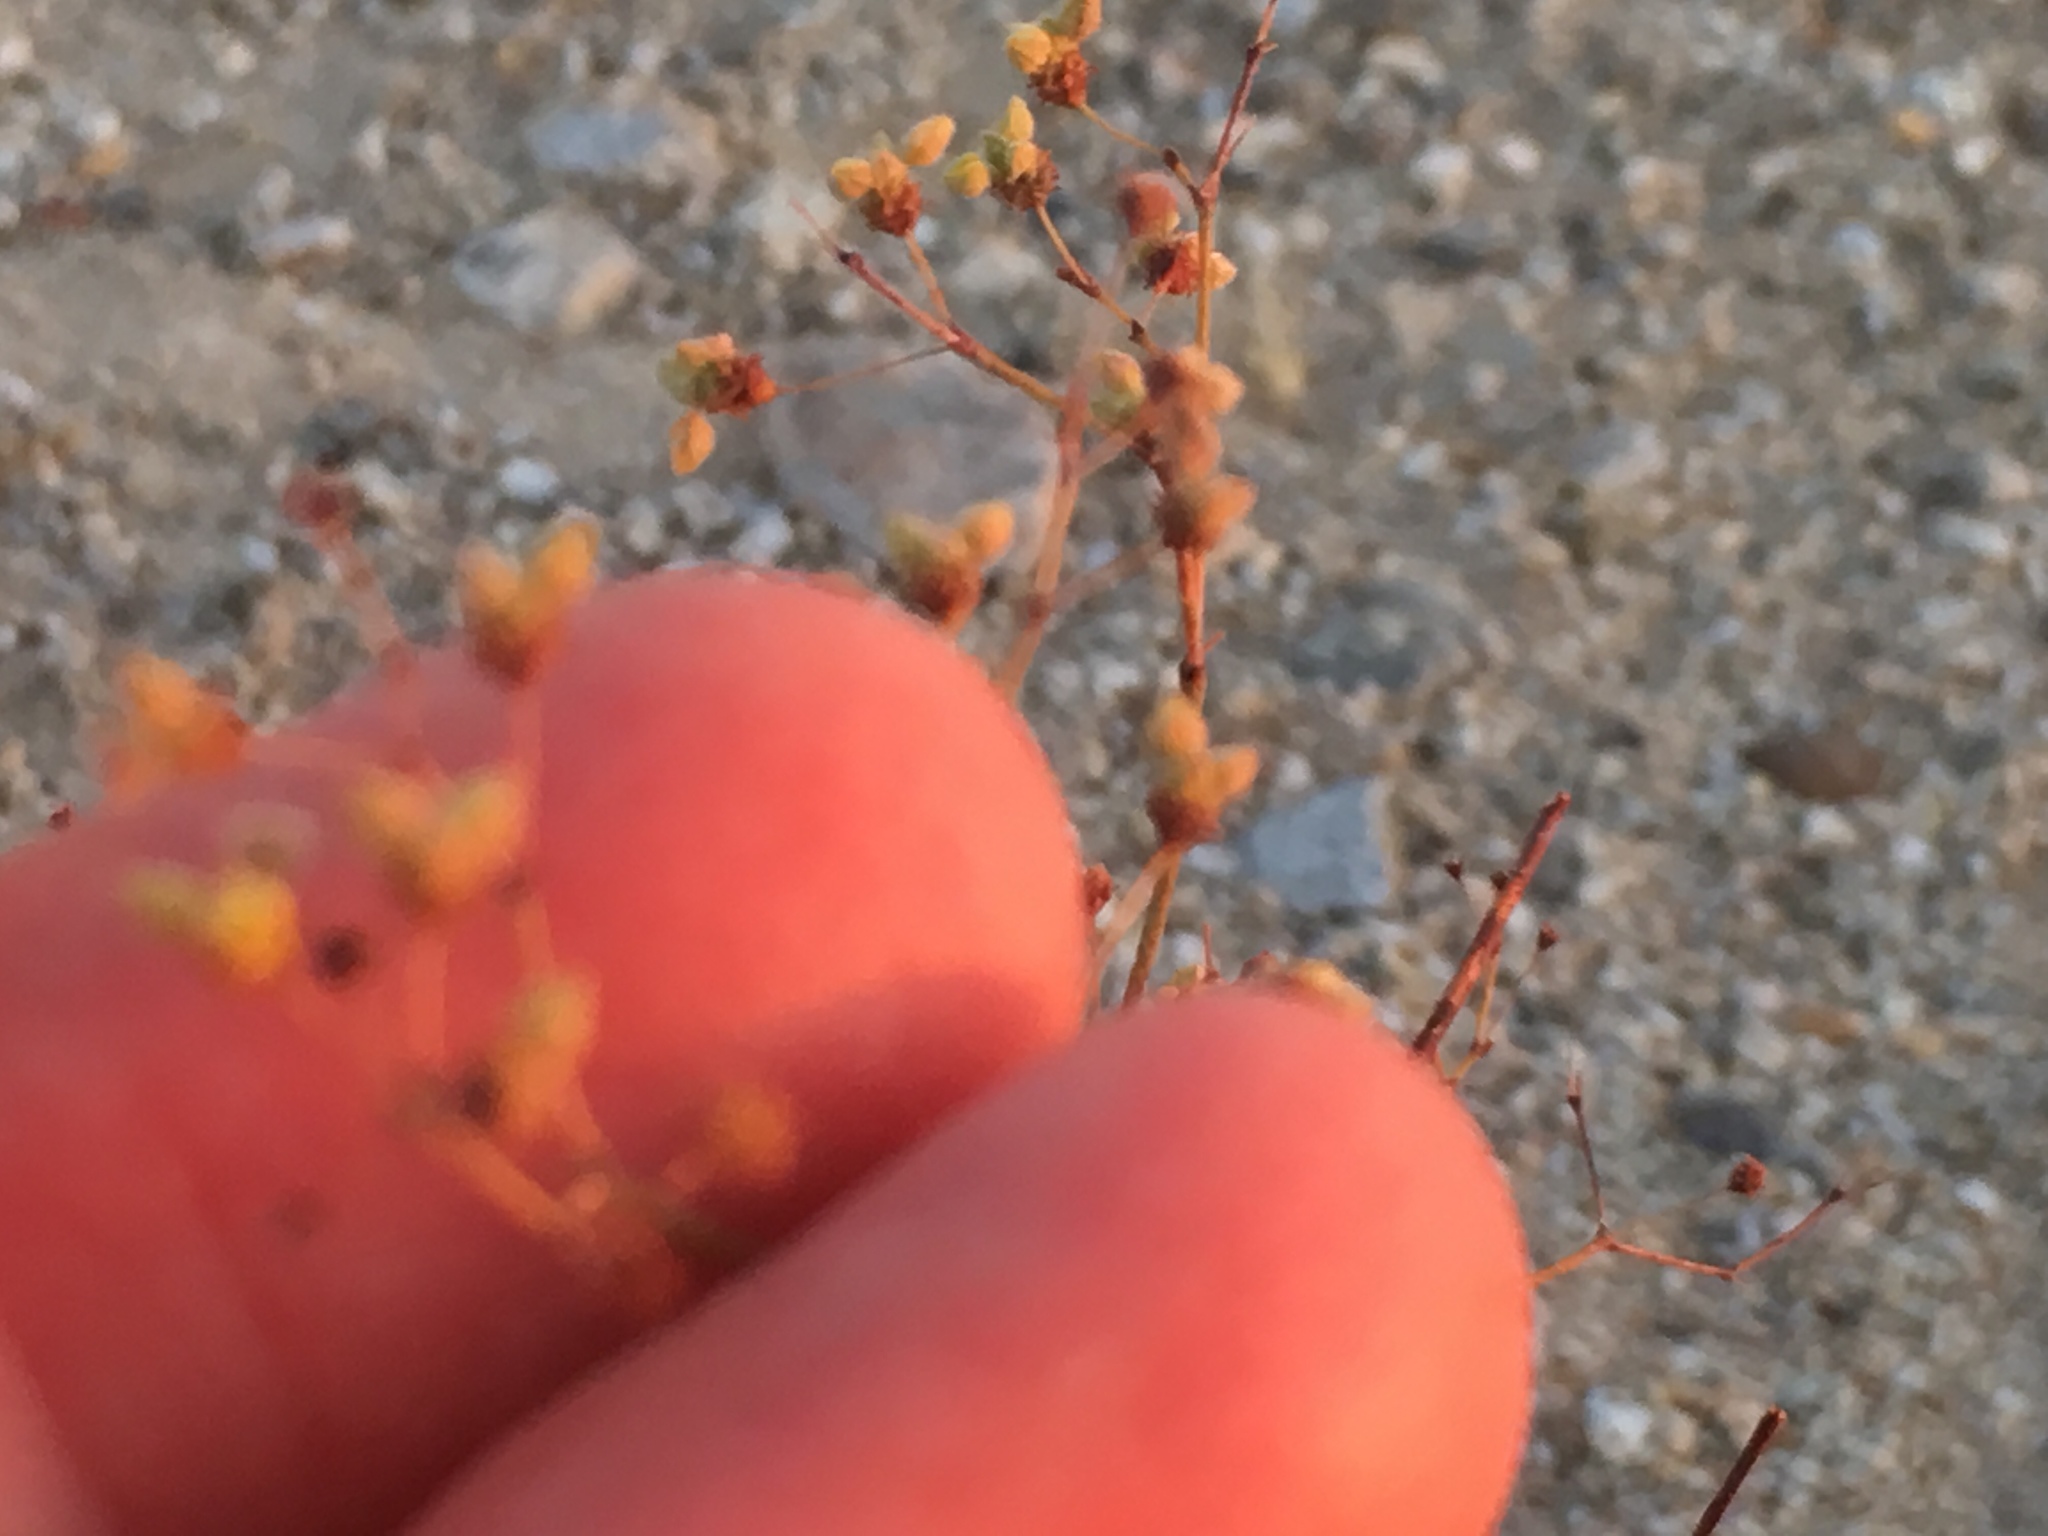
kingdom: Plantae
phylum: Tracheophyta
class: Magnoliopsida
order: Caryophyllales
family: Polygonaceae
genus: Eriogonum
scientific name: Eriogonum inflatum
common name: Desert trumpet
